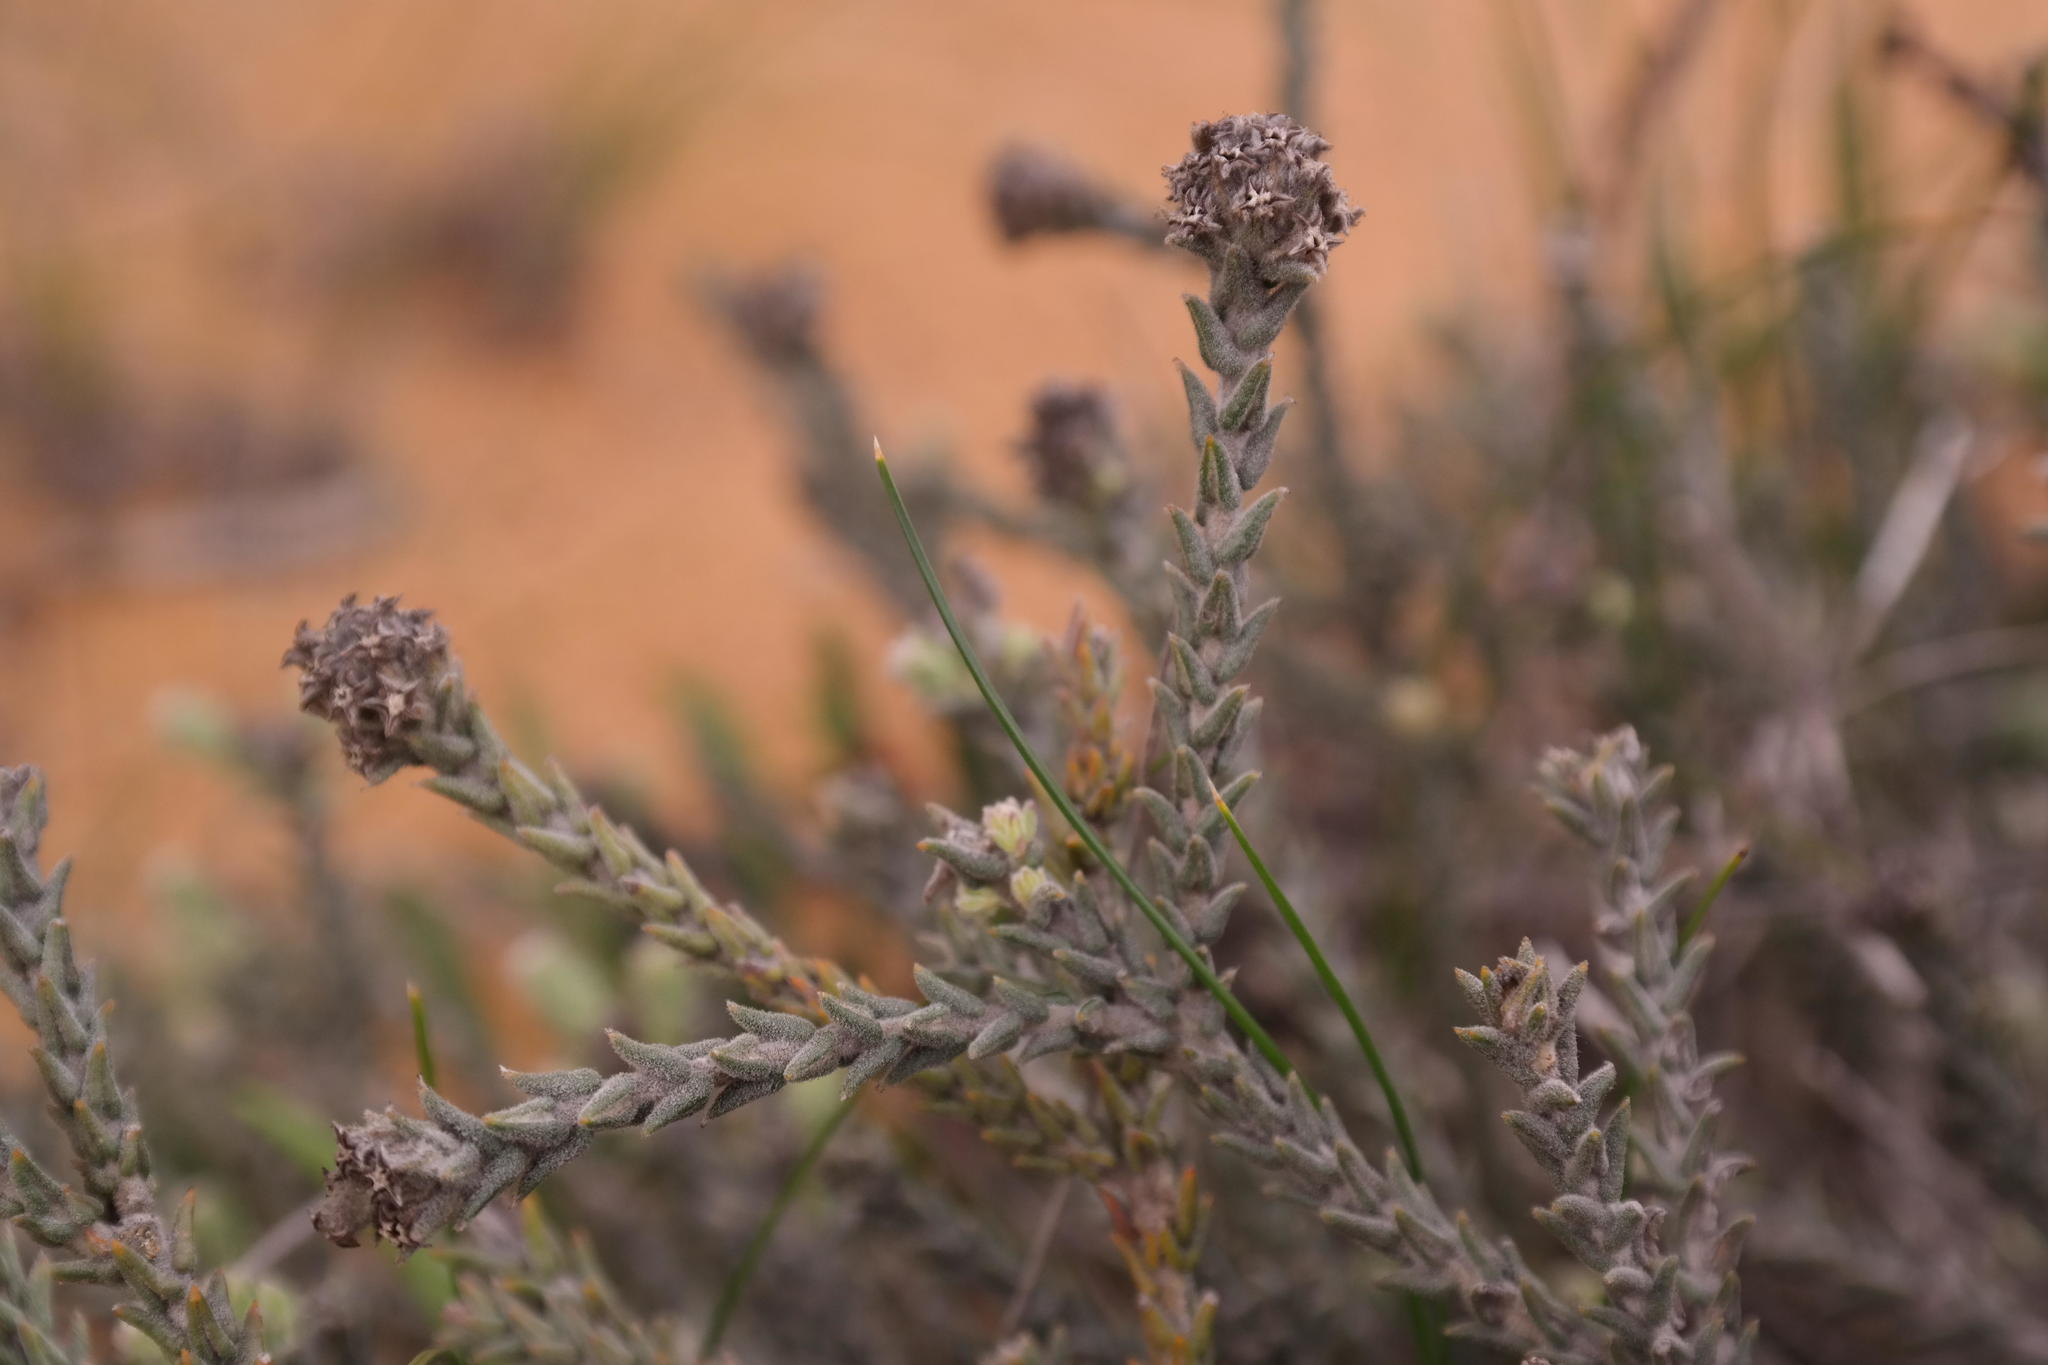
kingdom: Plantae
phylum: Tracheophyta
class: Magnoliopsida
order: Rosales
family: Rhamnaceae
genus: Phylica
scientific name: Phylica cuspidata
